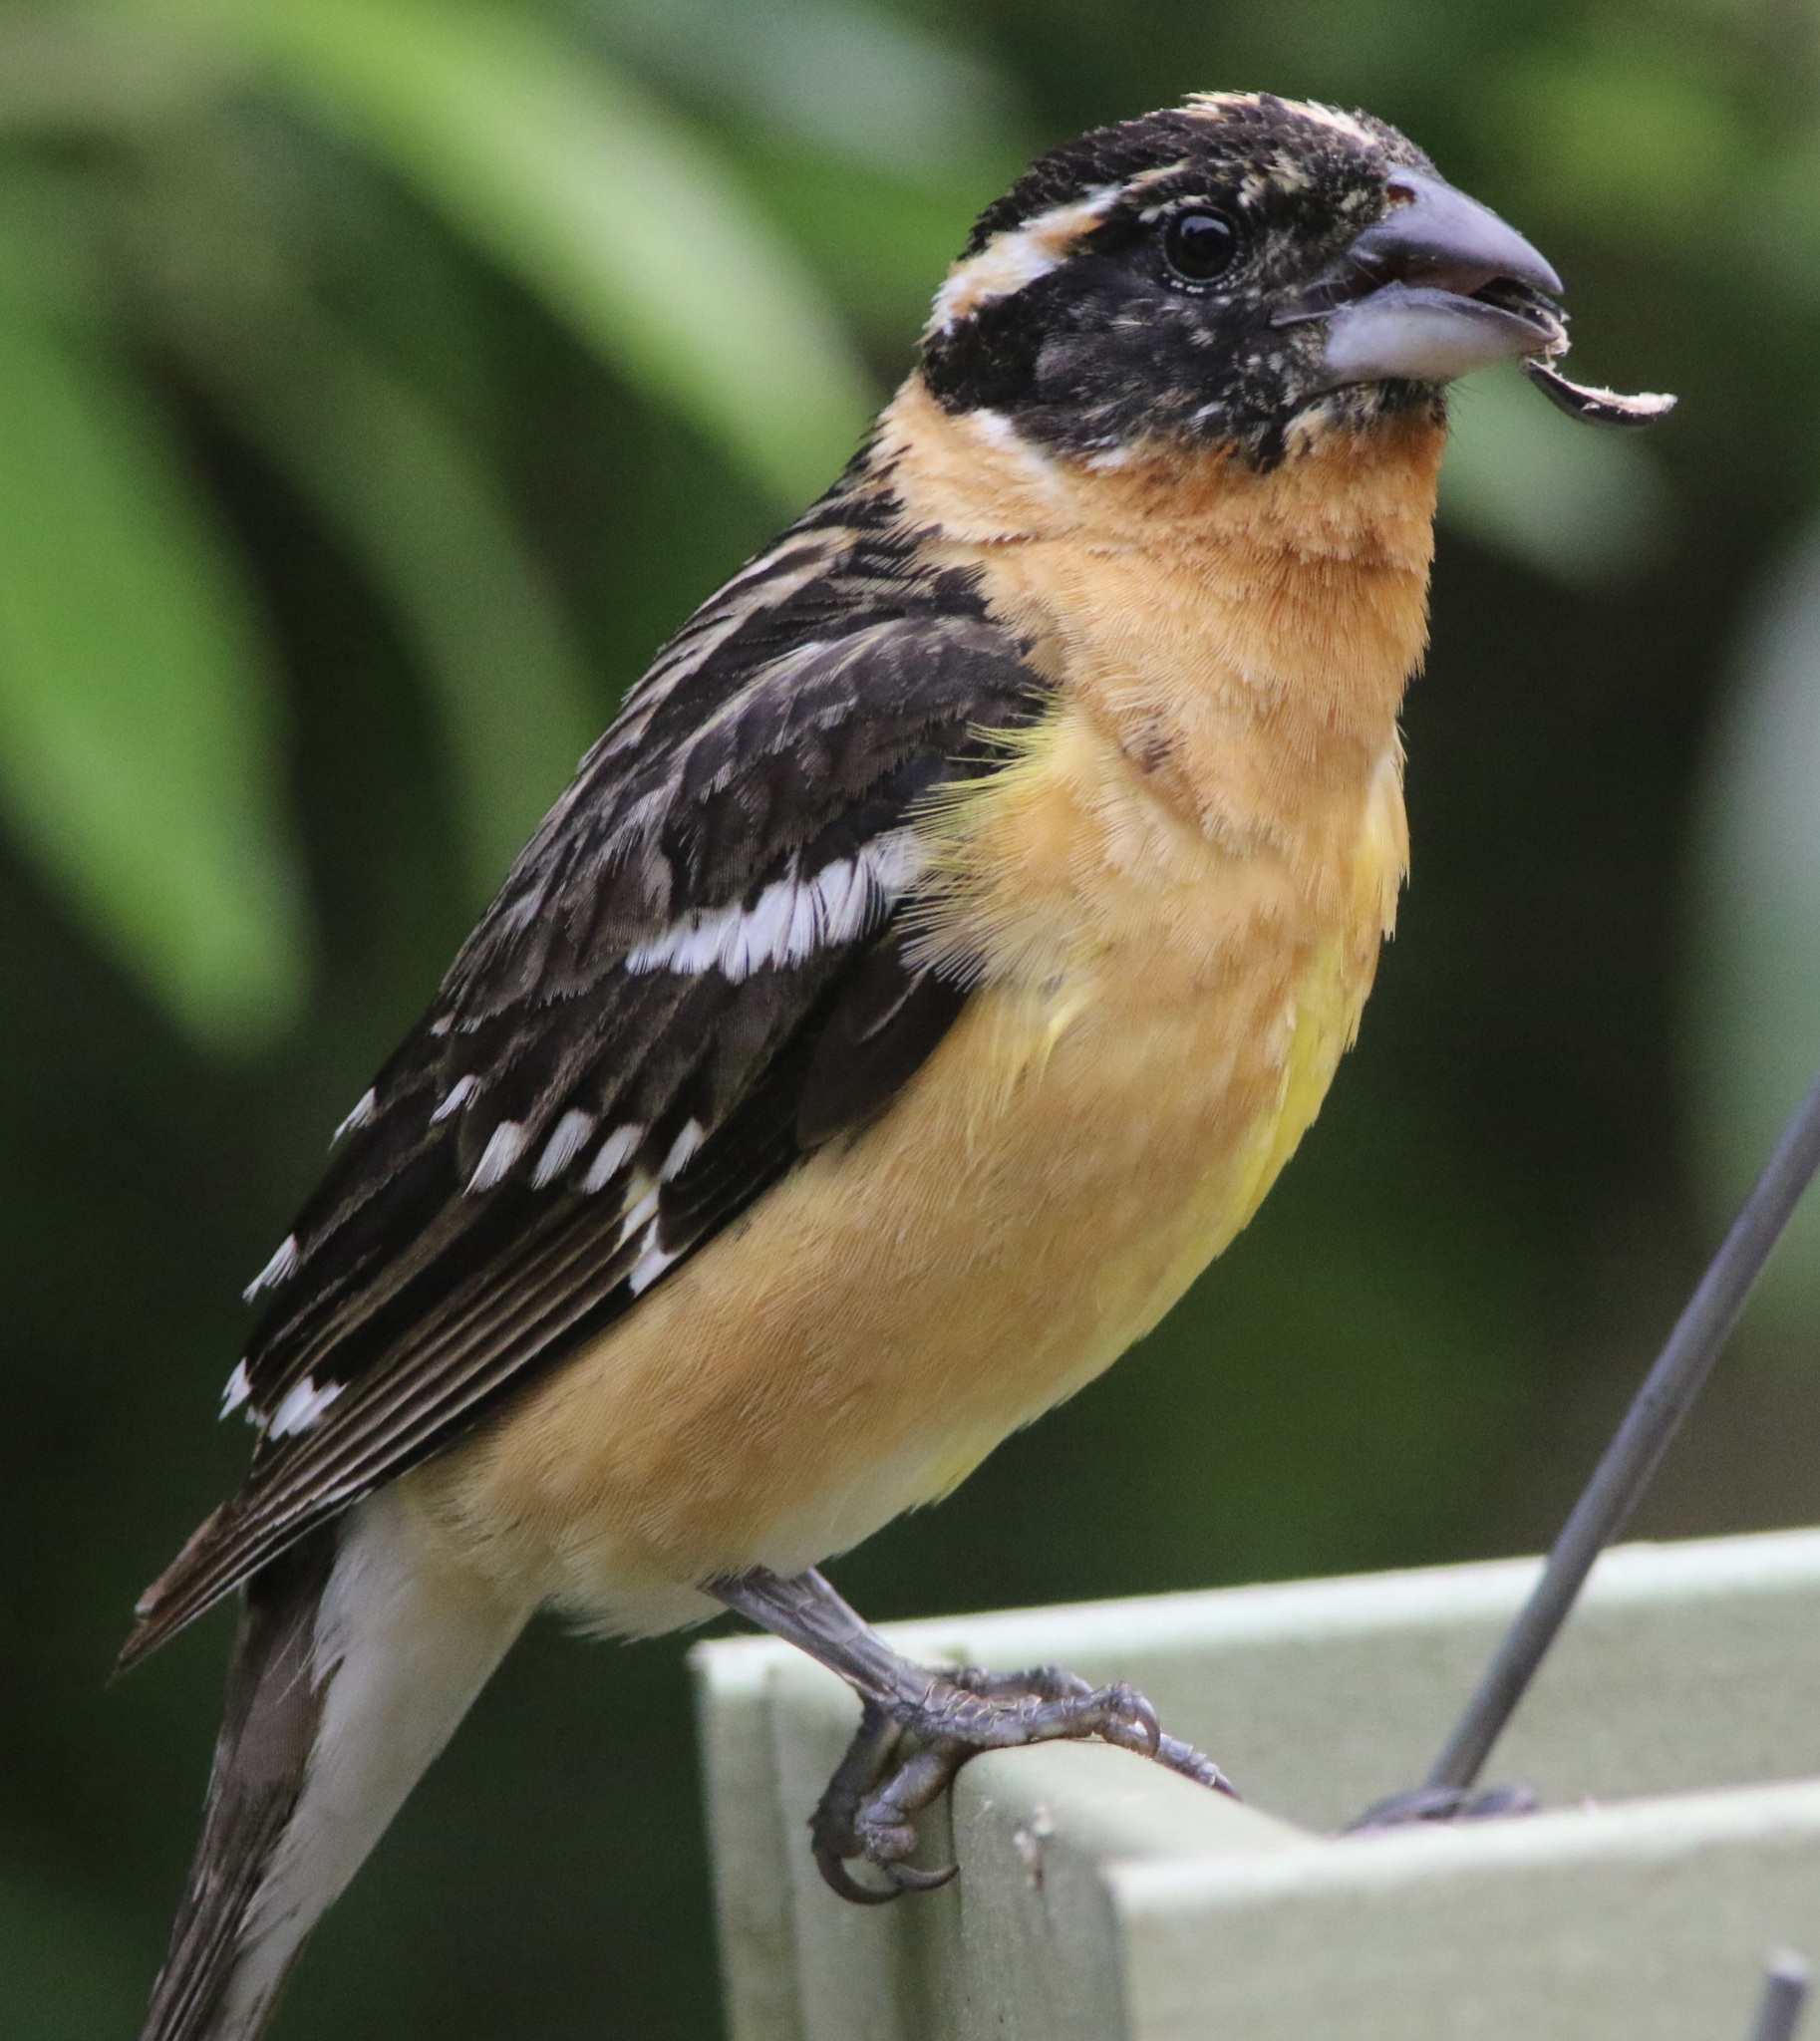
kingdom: Animalia
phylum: Chordata
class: Aves
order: Passeriformes
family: Cardinalidae
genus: Pheucticus
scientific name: Pheucticus melanocephalus
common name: Black-headed grosbeak
